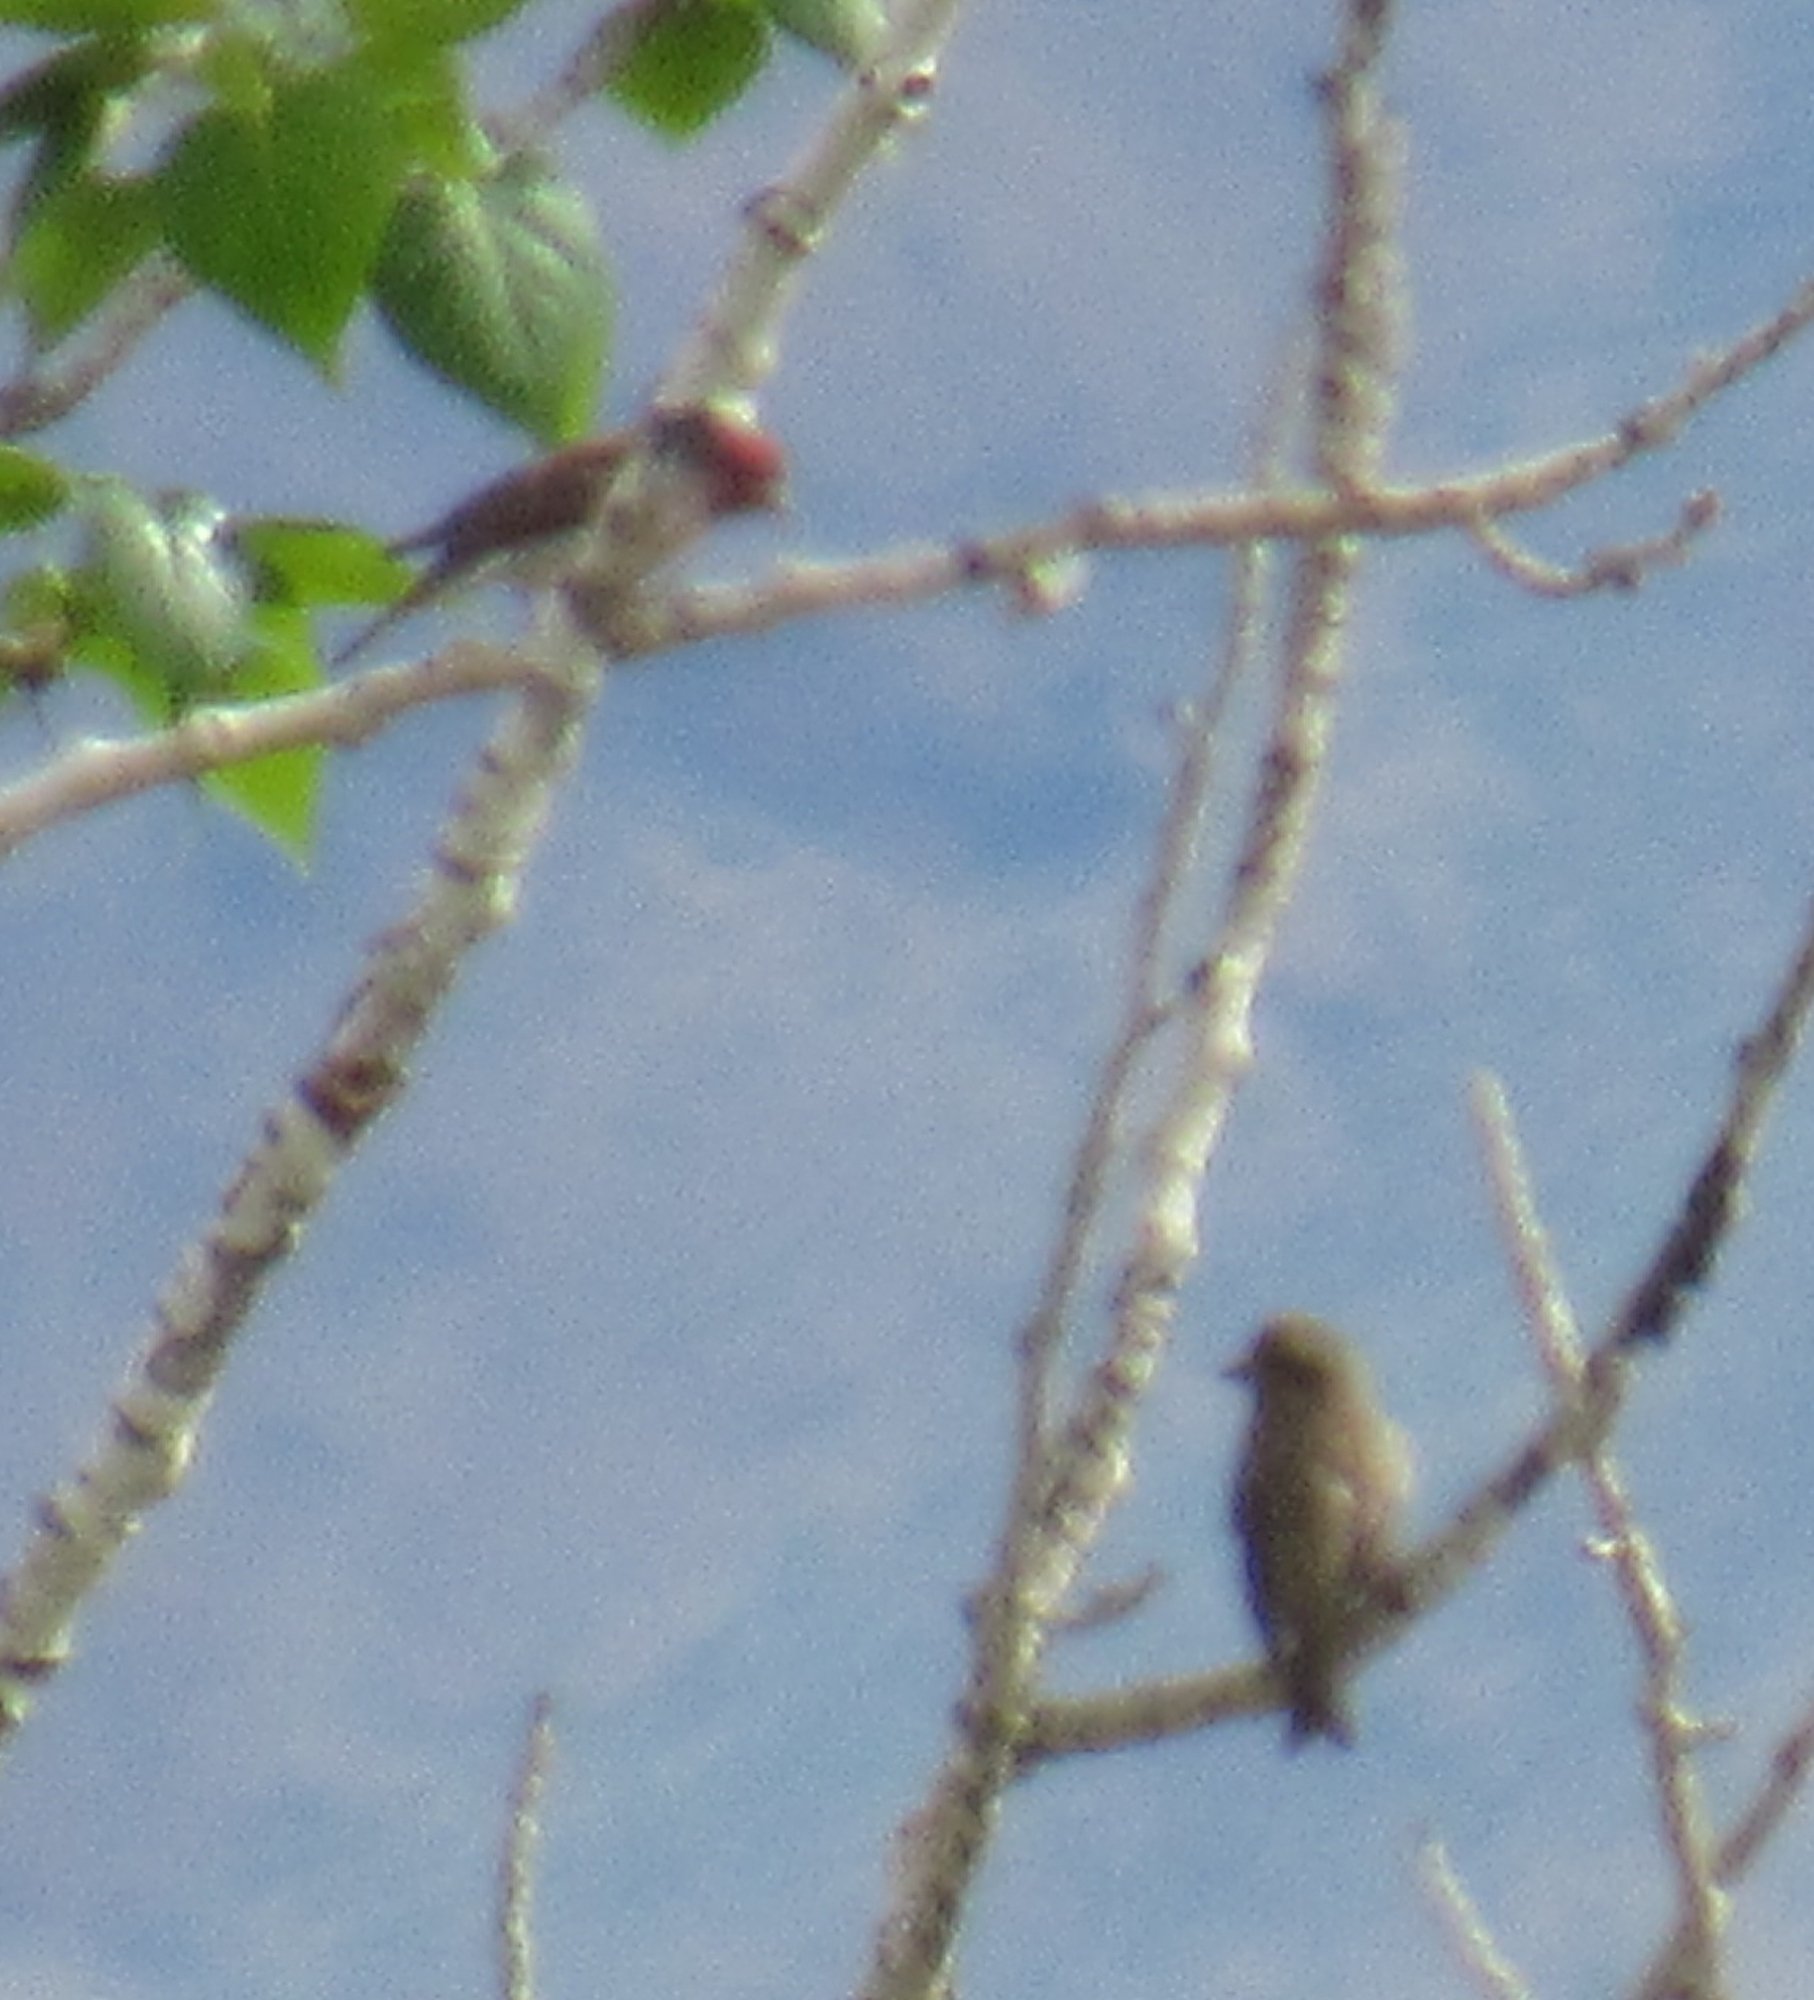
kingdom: Animalia
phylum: Chordata
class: Aves
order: Passeriformes
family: Fringillidae
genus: Haemorhous
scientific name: Haemorhous cassinii
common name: Cassin's finch
